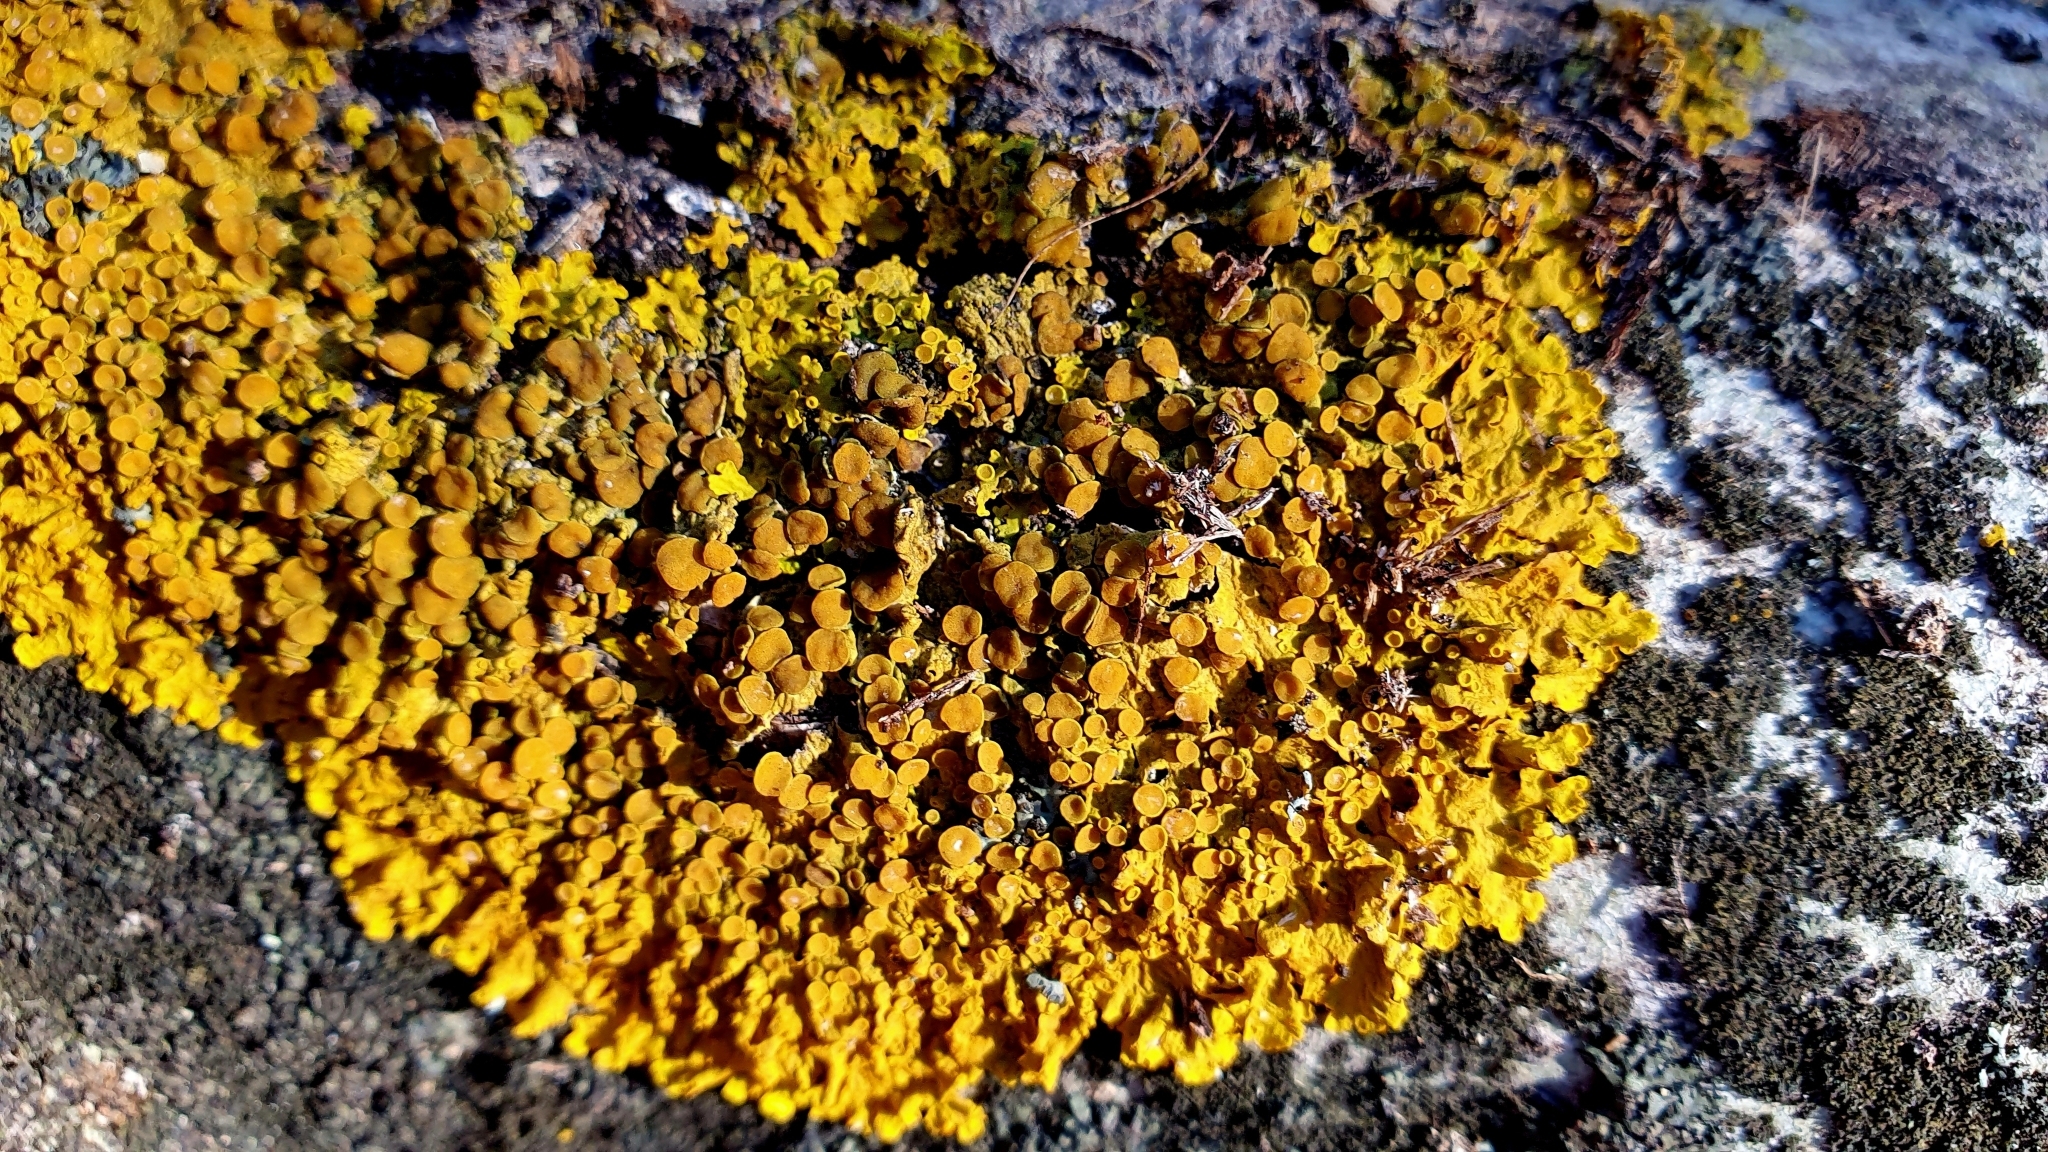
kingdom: Fungi
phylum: Ascomycota
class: Lecanoromycetes
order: Teloschistales
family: Teloschistaceae
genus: Xanthoria
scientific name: Xanthoria parietina
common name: Common orange lichen
